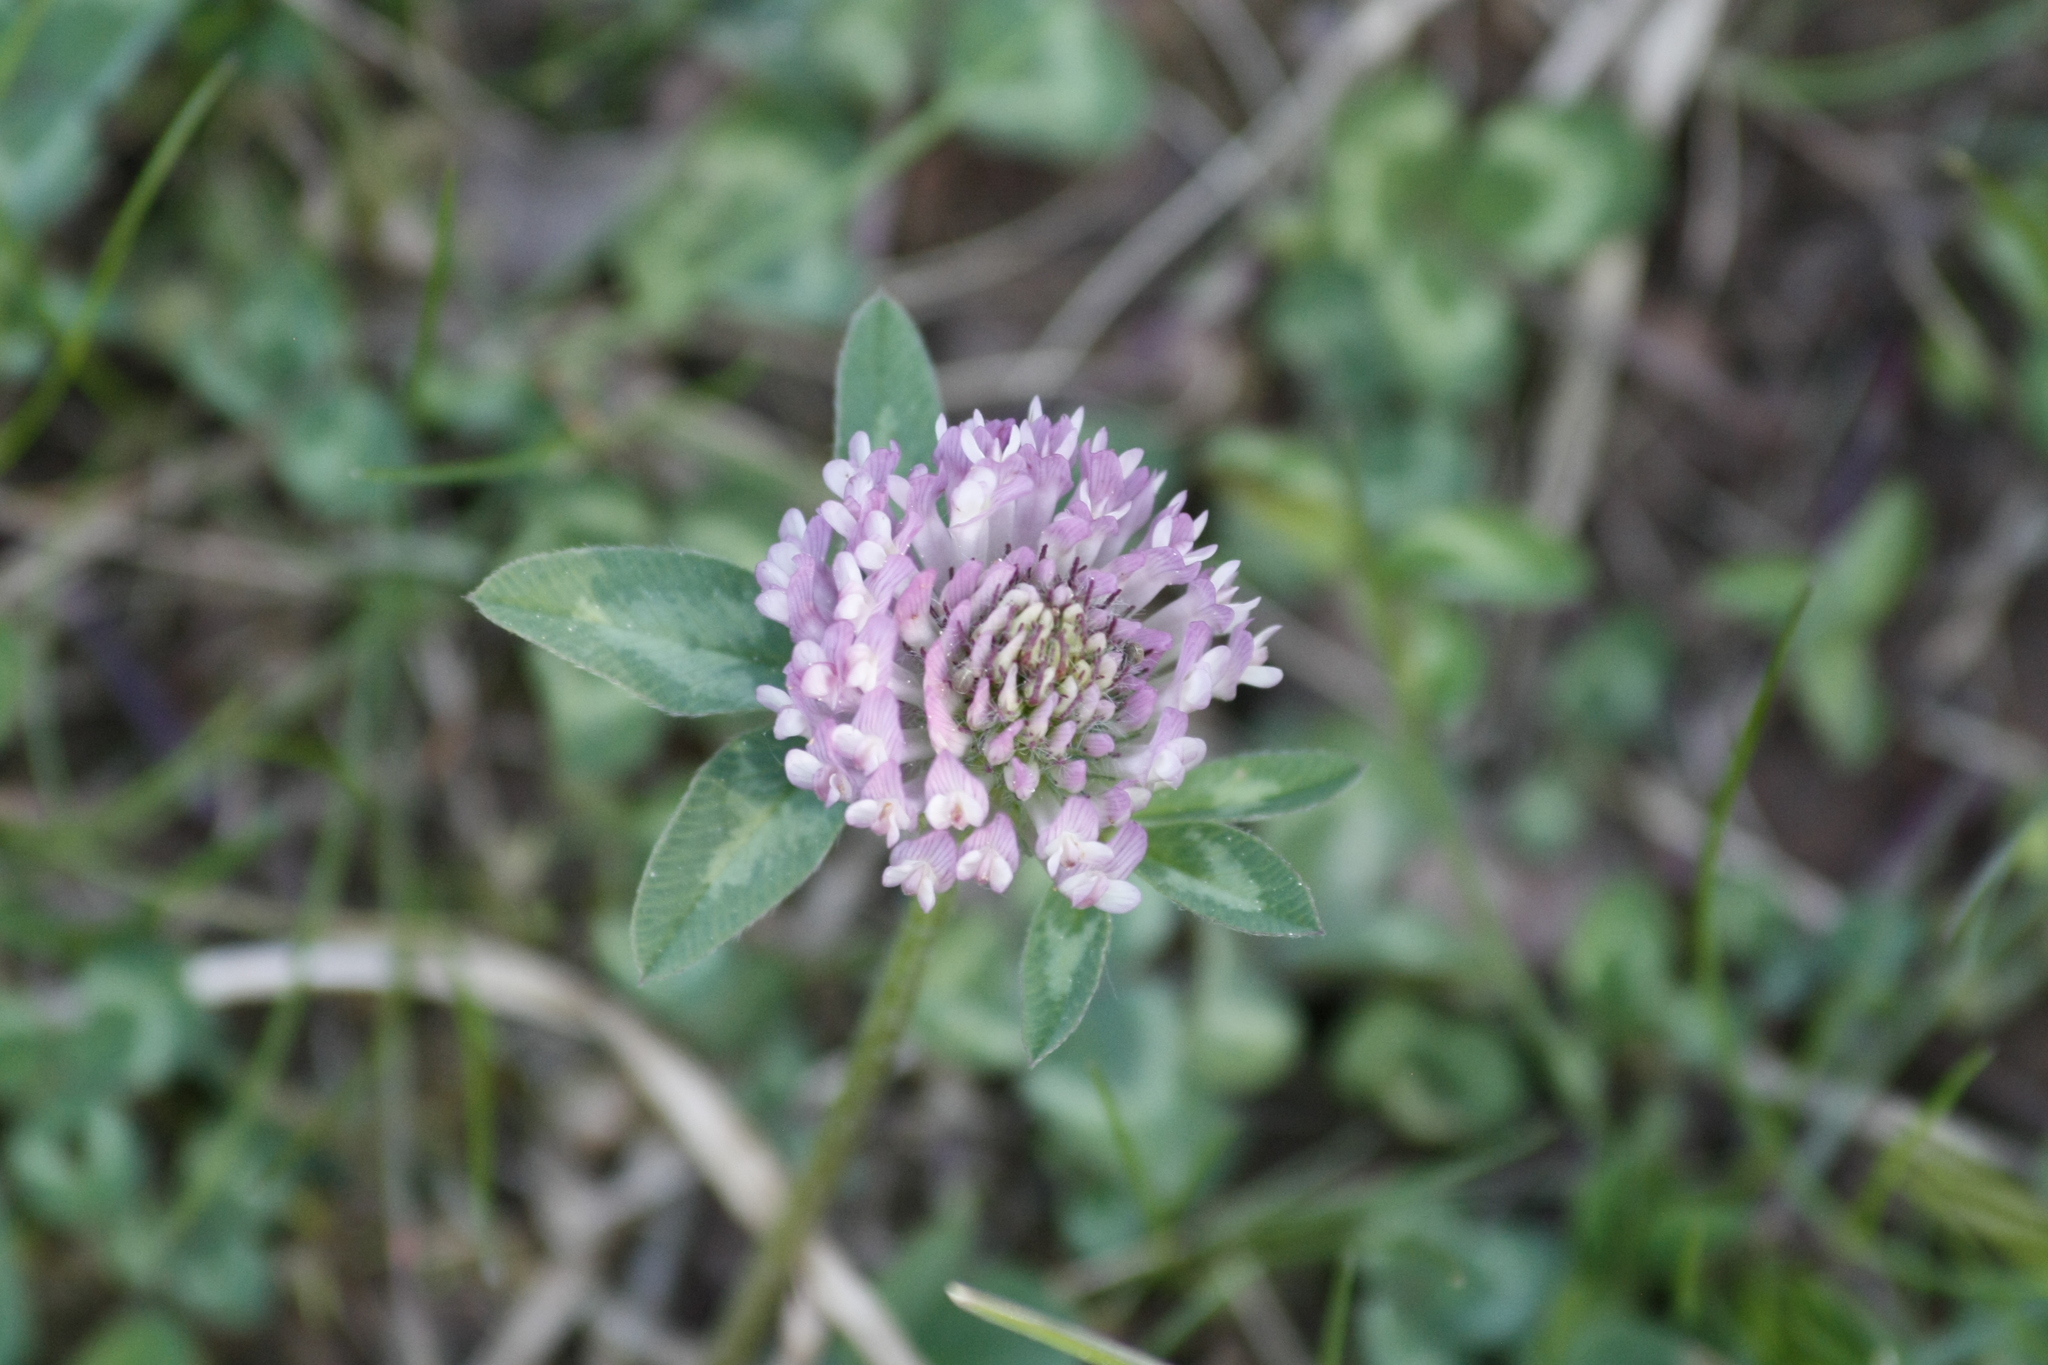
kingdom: Plantae
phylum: Tracheophyta
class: Magnoliopsida
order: Fabales
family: Fabaceae
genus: Trifolium
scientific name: Trifolium pratense
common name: Red clover
